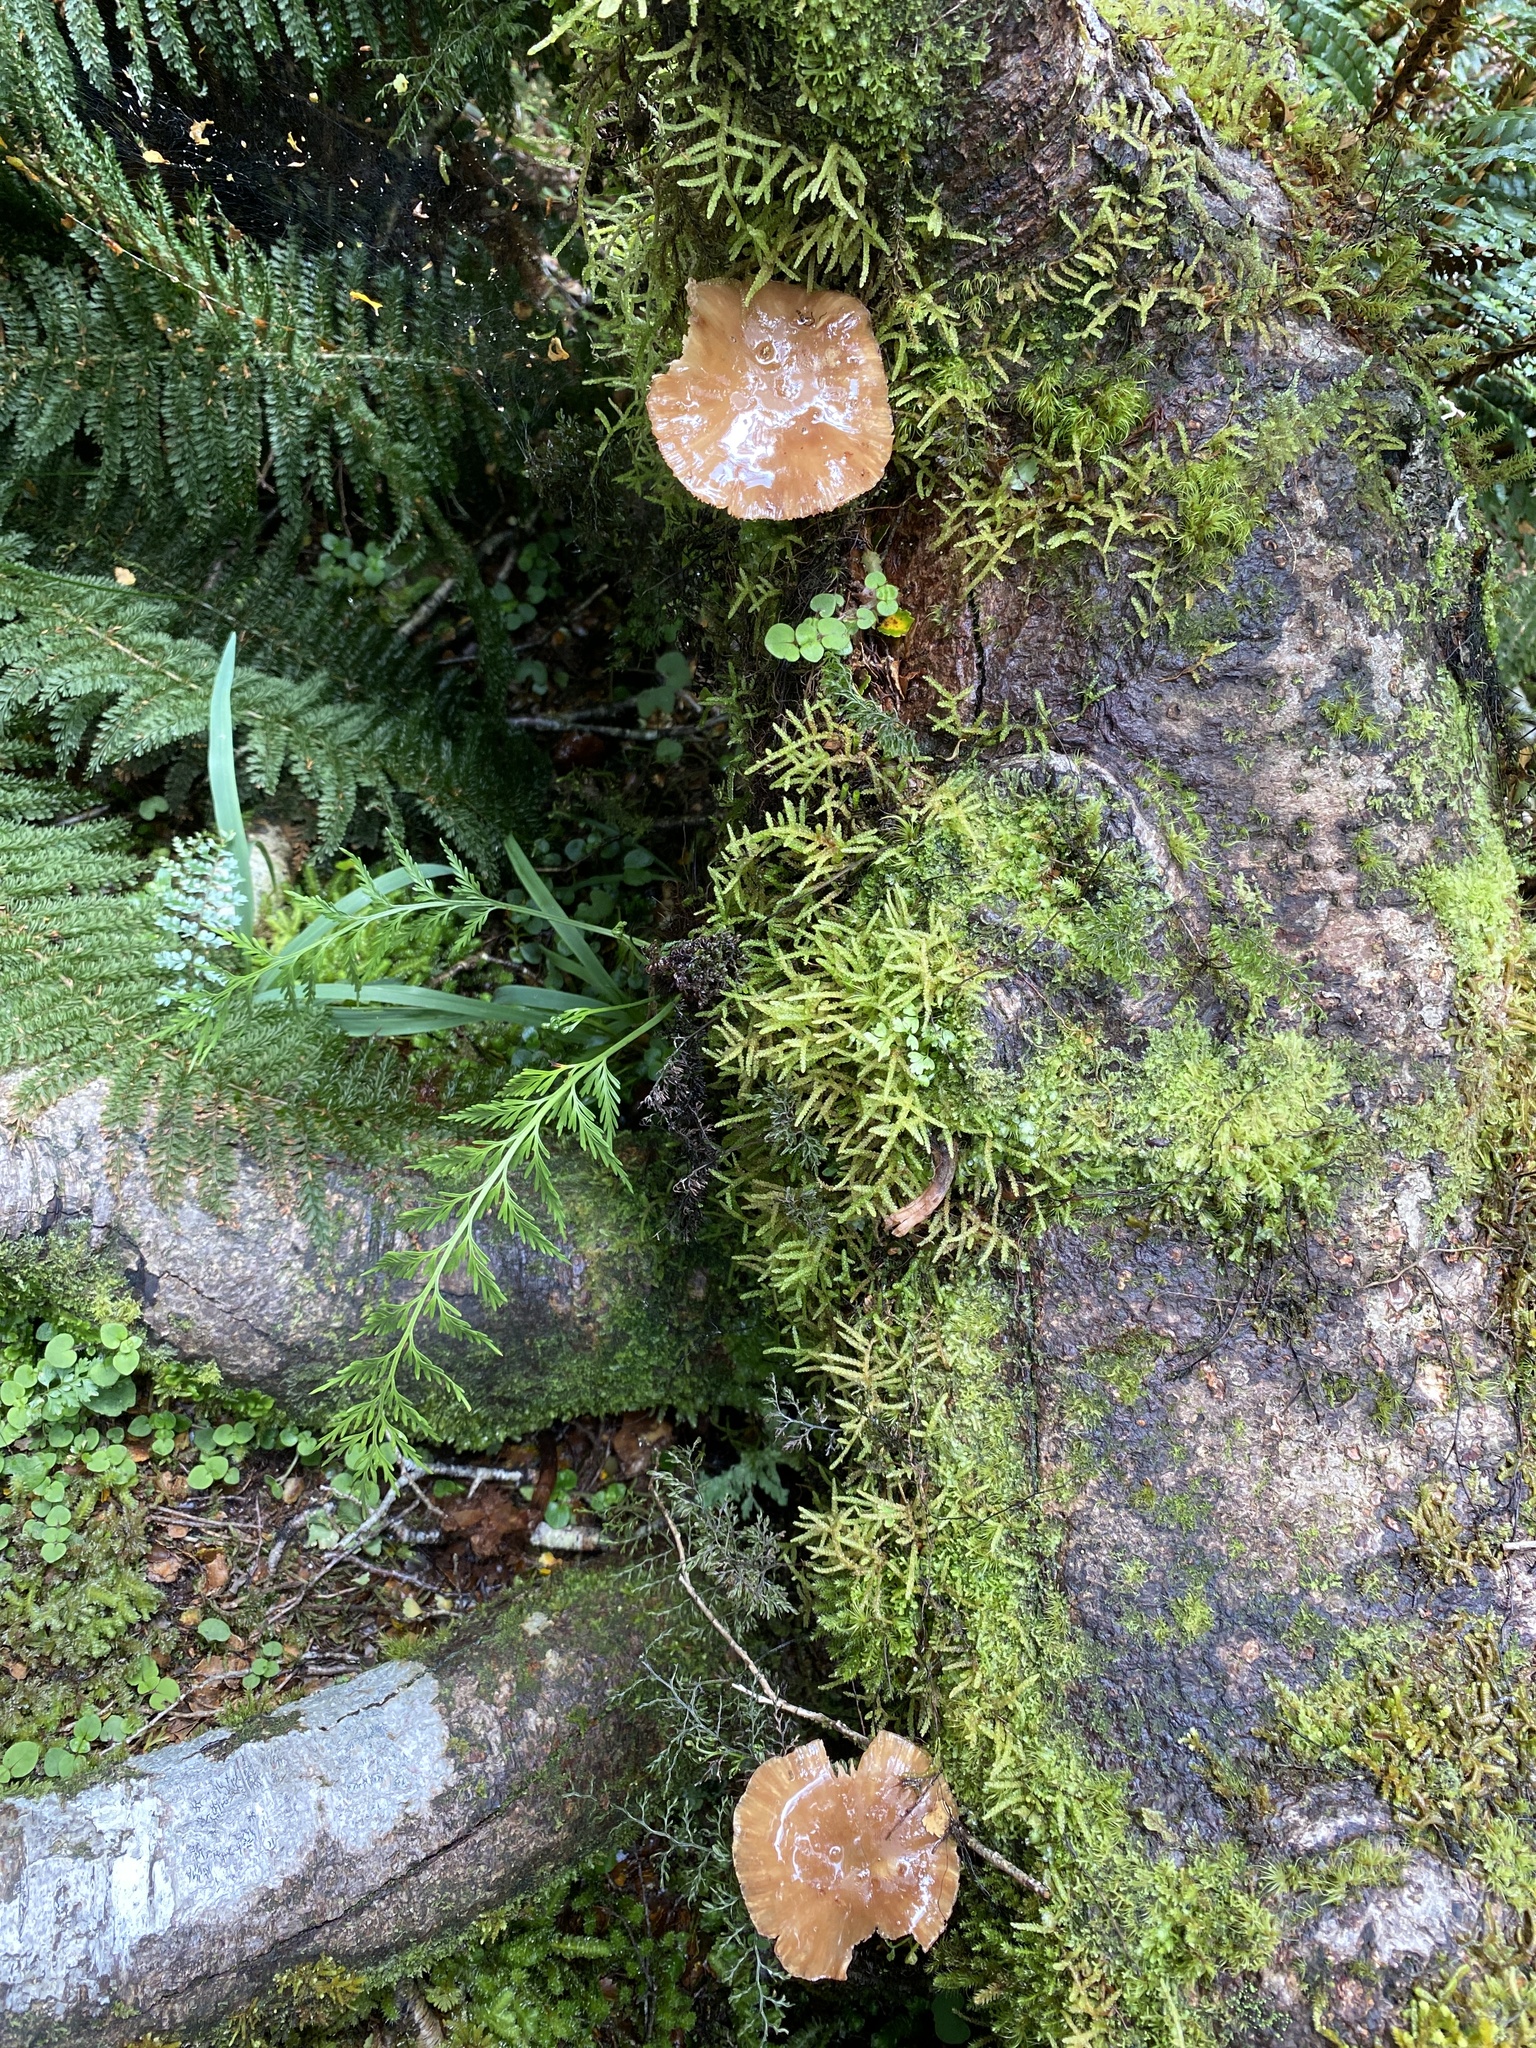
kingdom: Fungi
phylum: Basidiomycota
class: Agaricomycetes
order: Agaricales
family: Physalacriaceae
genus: Armillaria
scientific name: Armillaria novae-zelandiae
